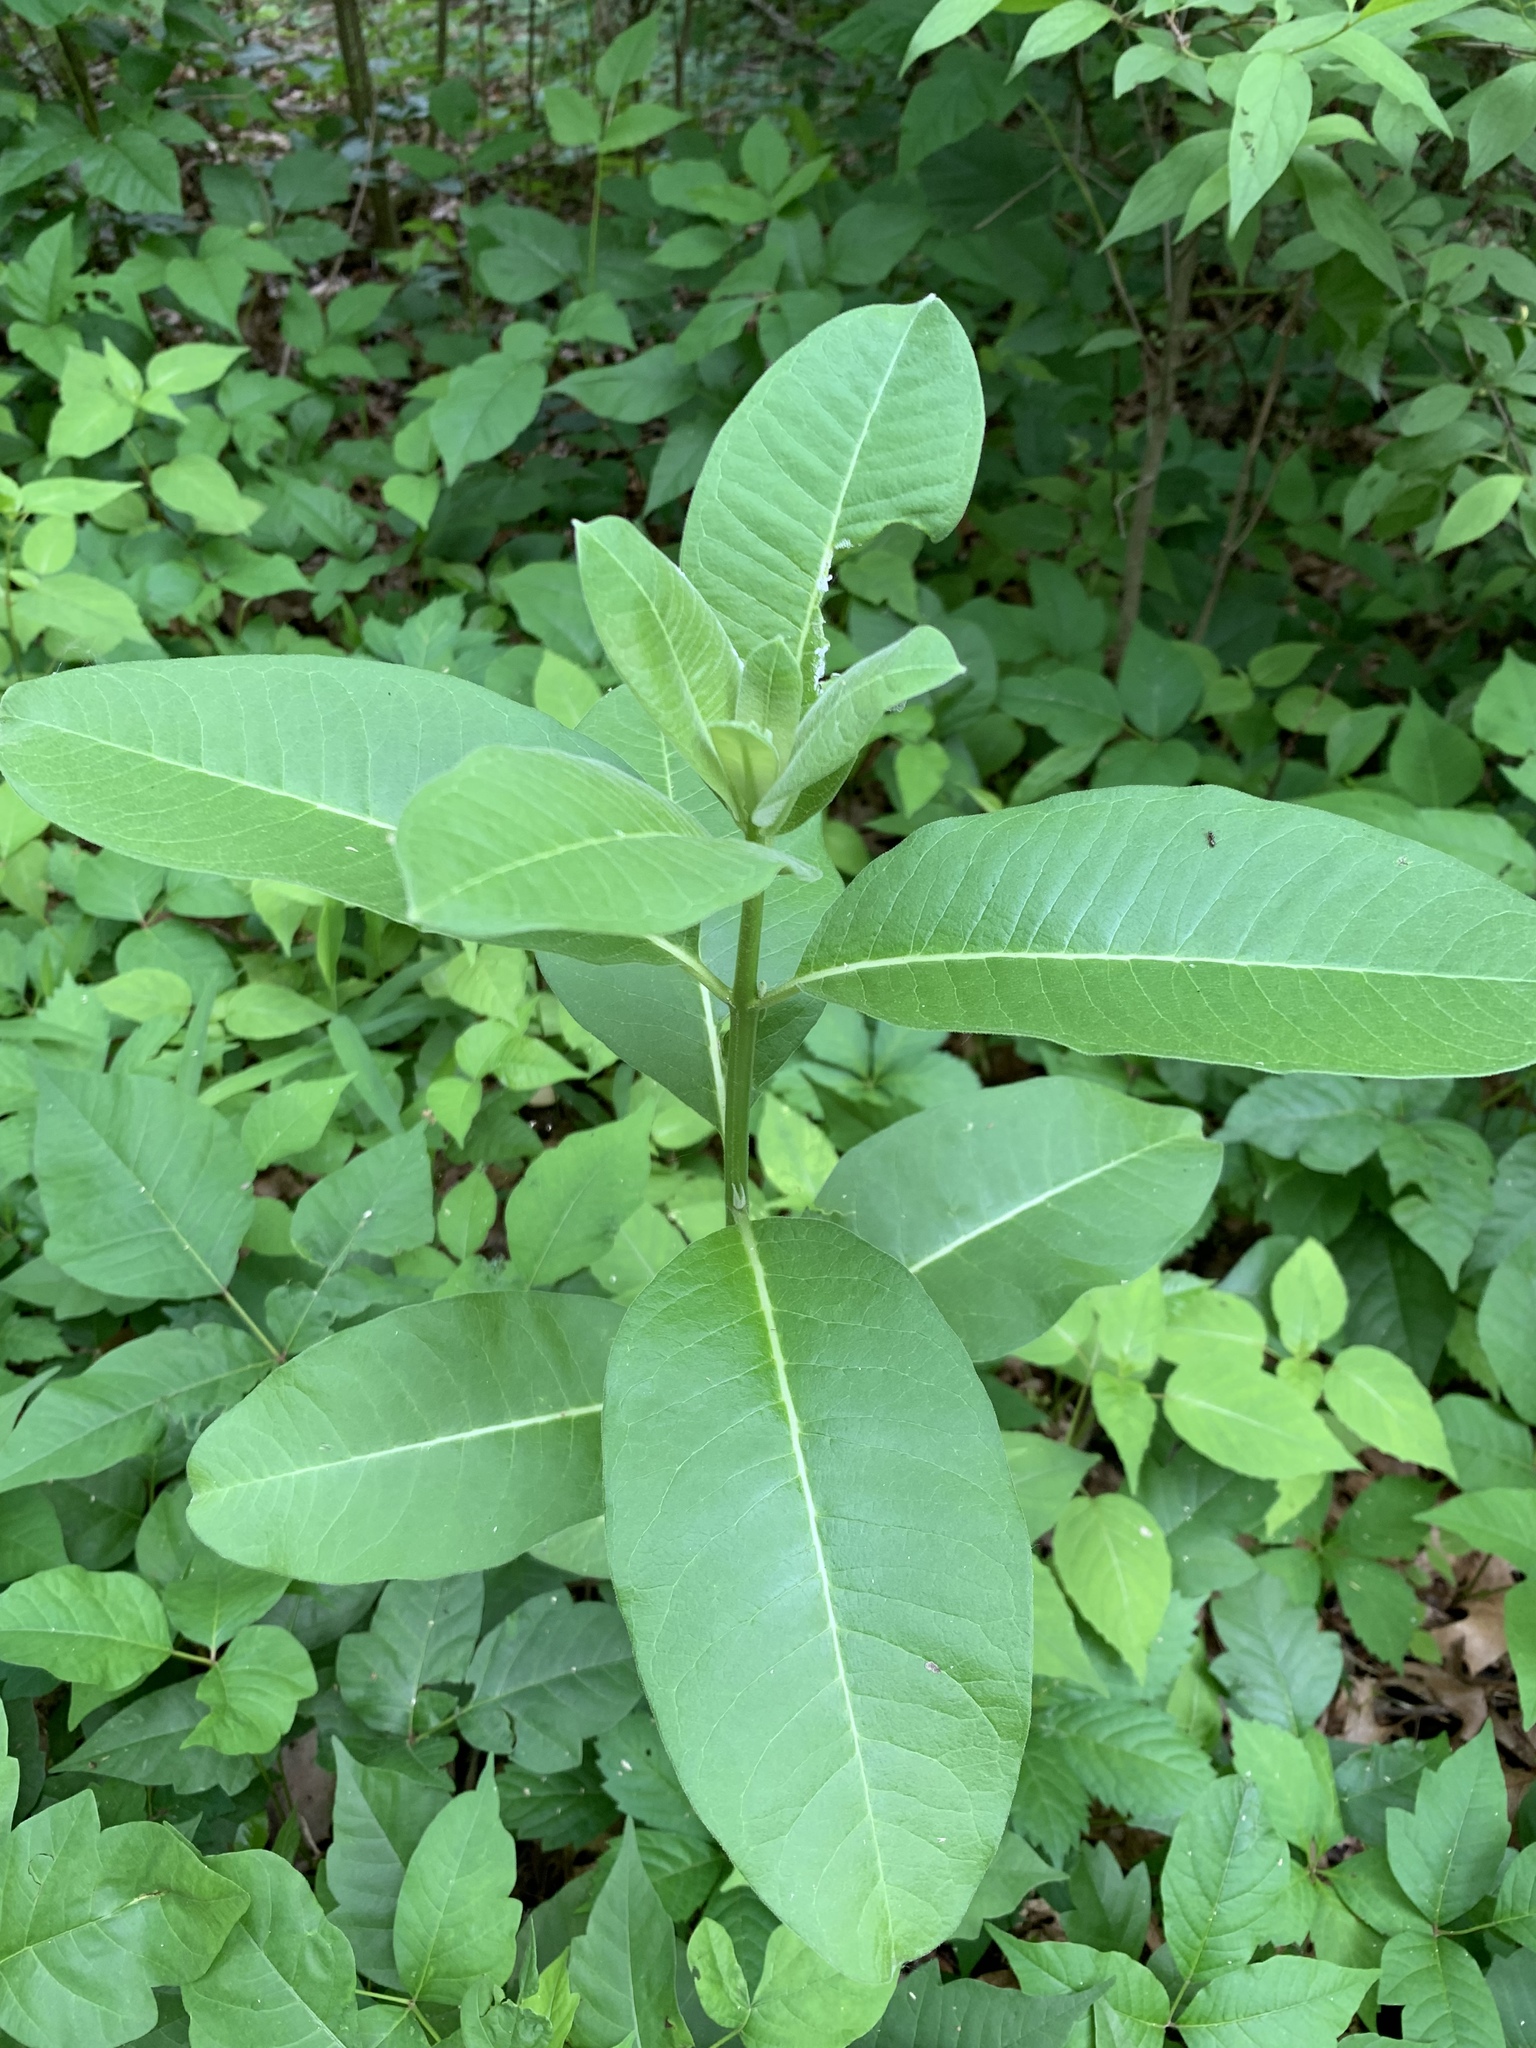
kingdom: Plantae
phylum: Tracheophyta
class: Magnoliopsida
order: Gentianales
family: Apocynaceae
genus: Asclepias
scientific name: Asclepias syriaca
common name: Common milkweed
